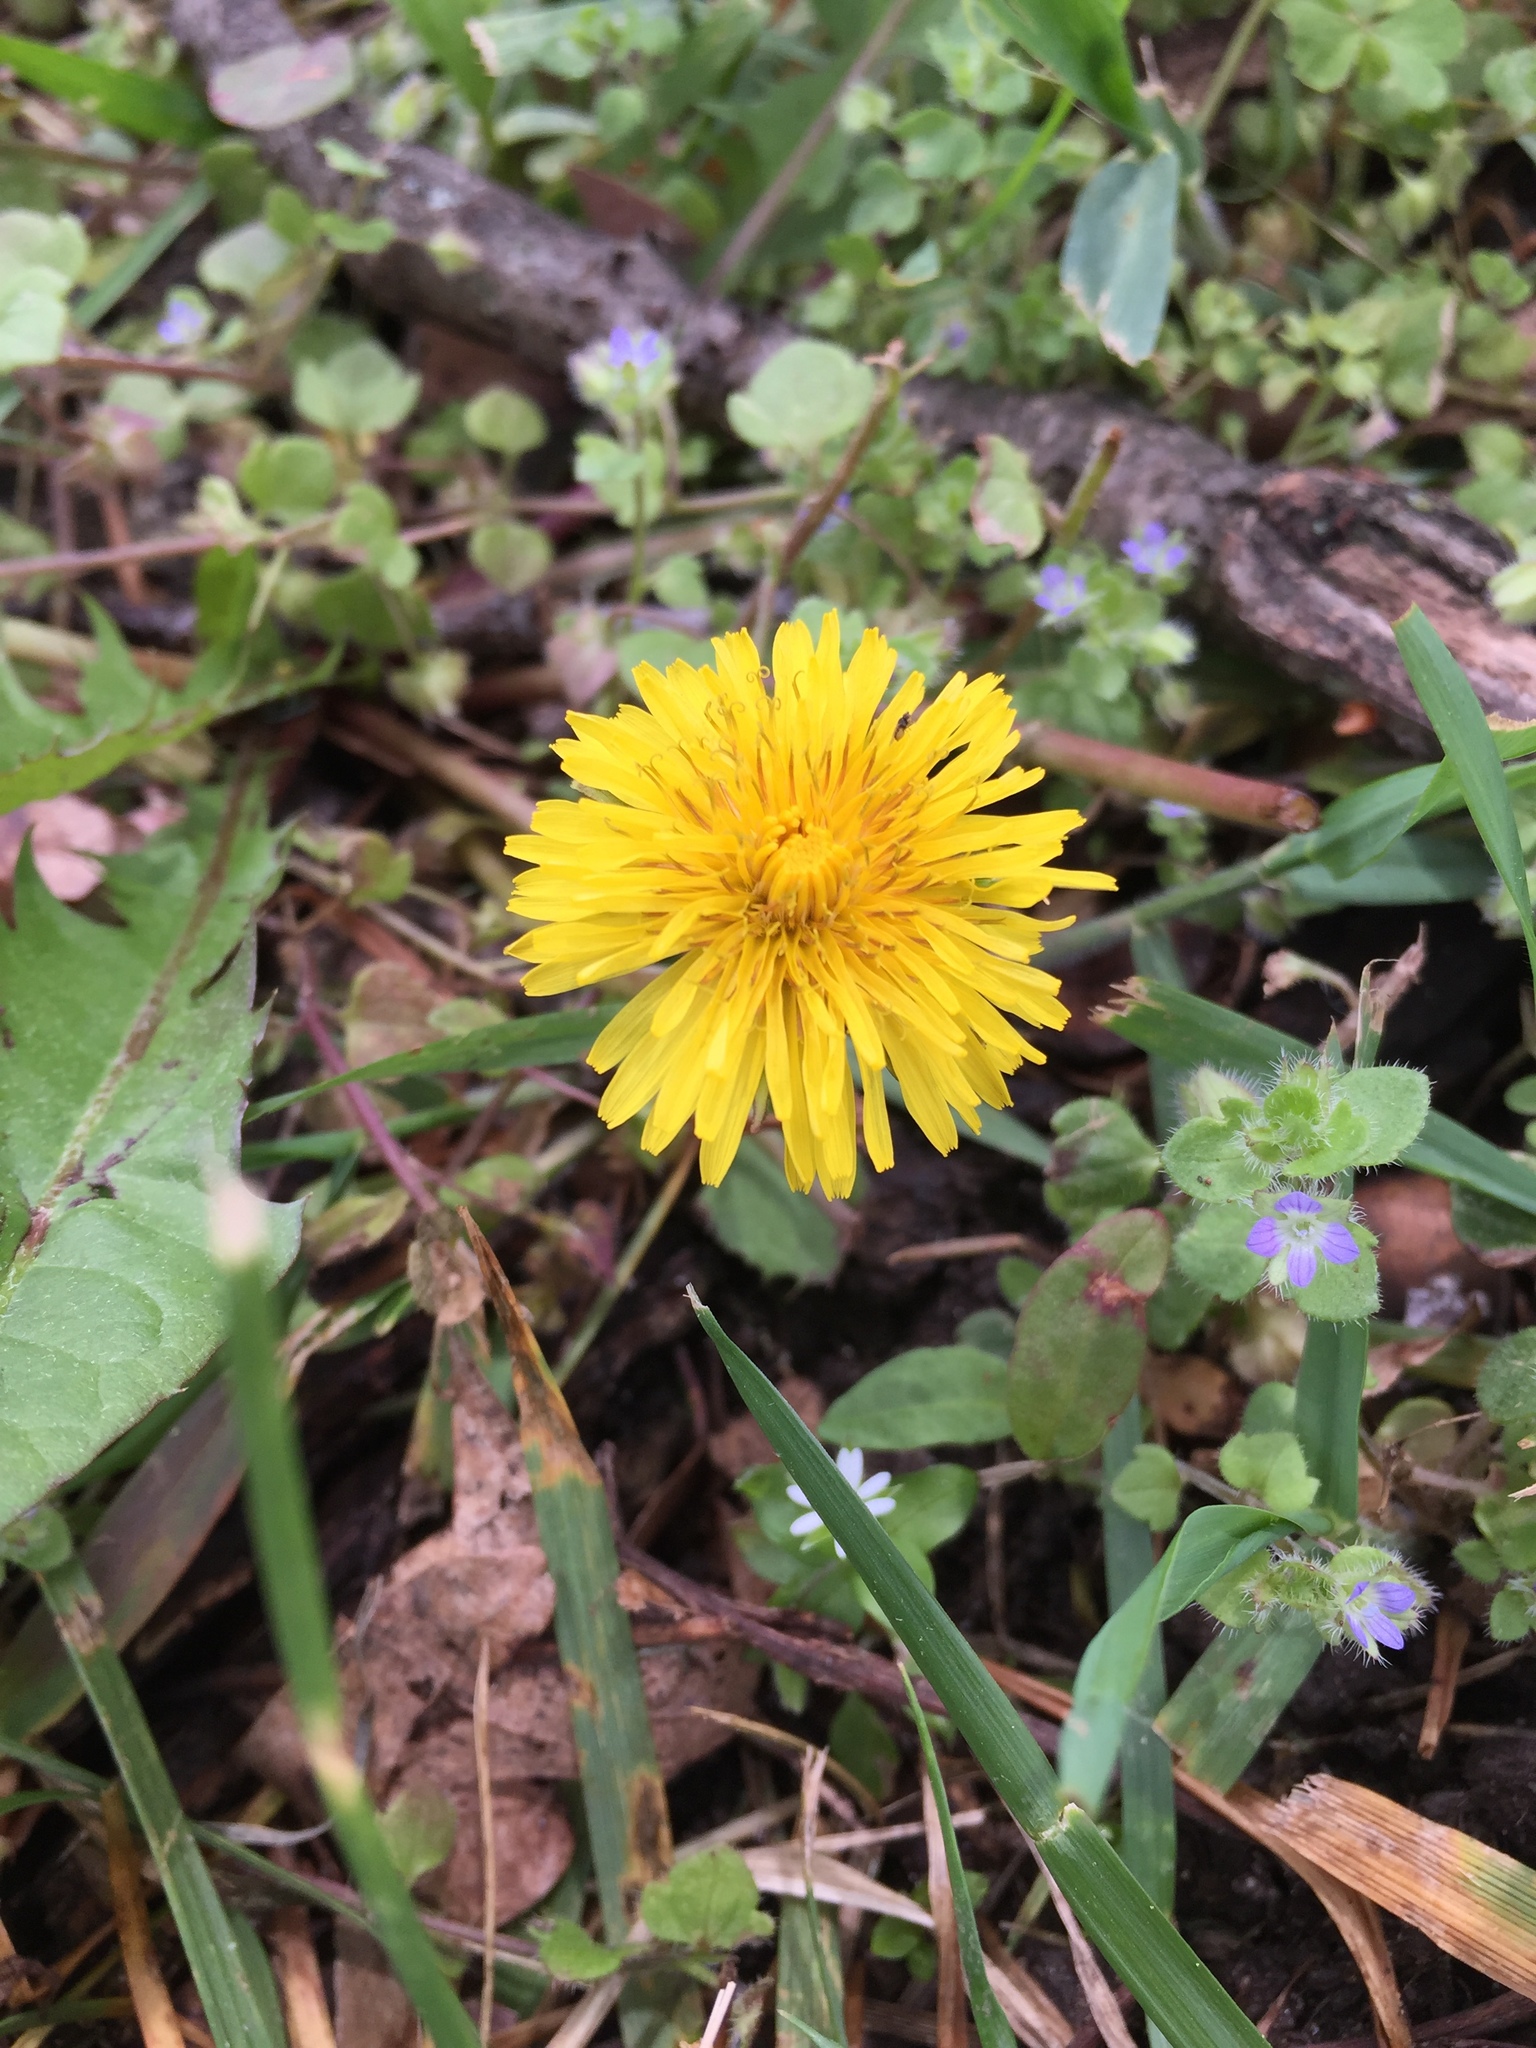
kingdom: Plantae
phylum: Tracheophyta
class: Magnoliopsida
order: Asterales
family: Asteraceae
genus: Taraxacum
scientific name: Taraxacum officinale
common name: Common dandelion
